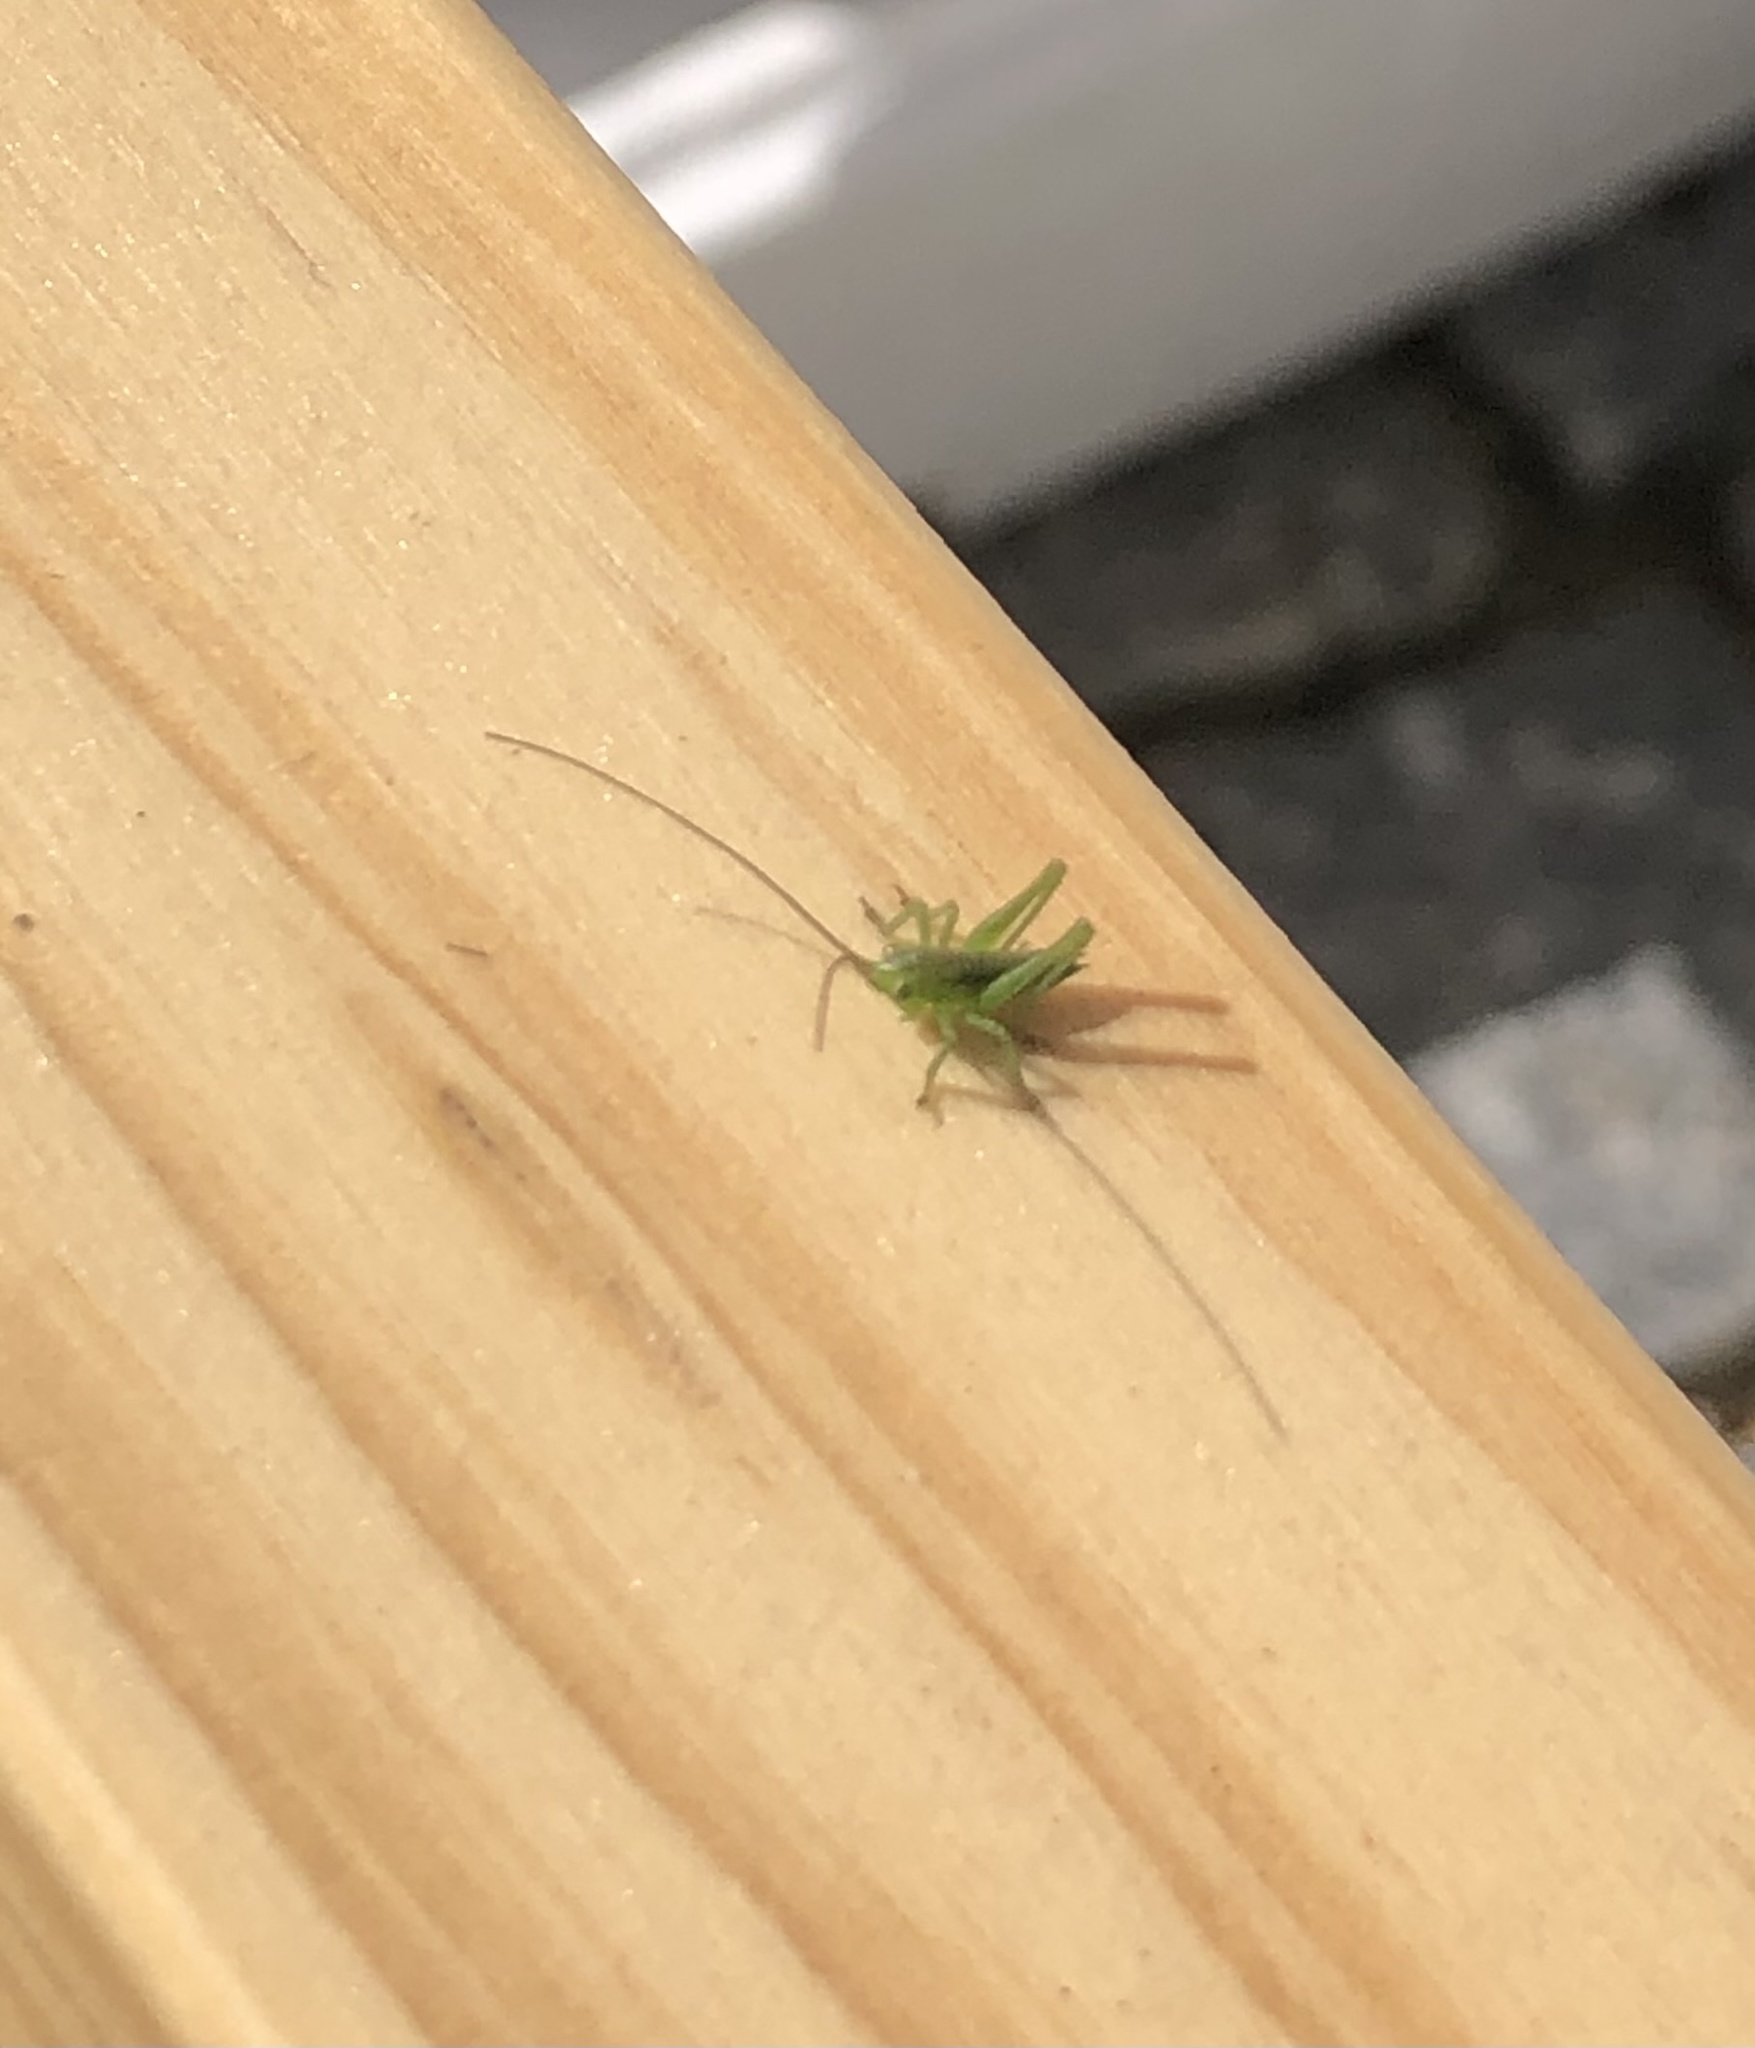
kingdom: Animalia
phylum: Arthropoda
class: Insecta
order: Orthoptera
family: Tettigoniidae
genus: Tettigonia
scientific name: Tettigonia viridissima
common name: Great green bush-cricket
